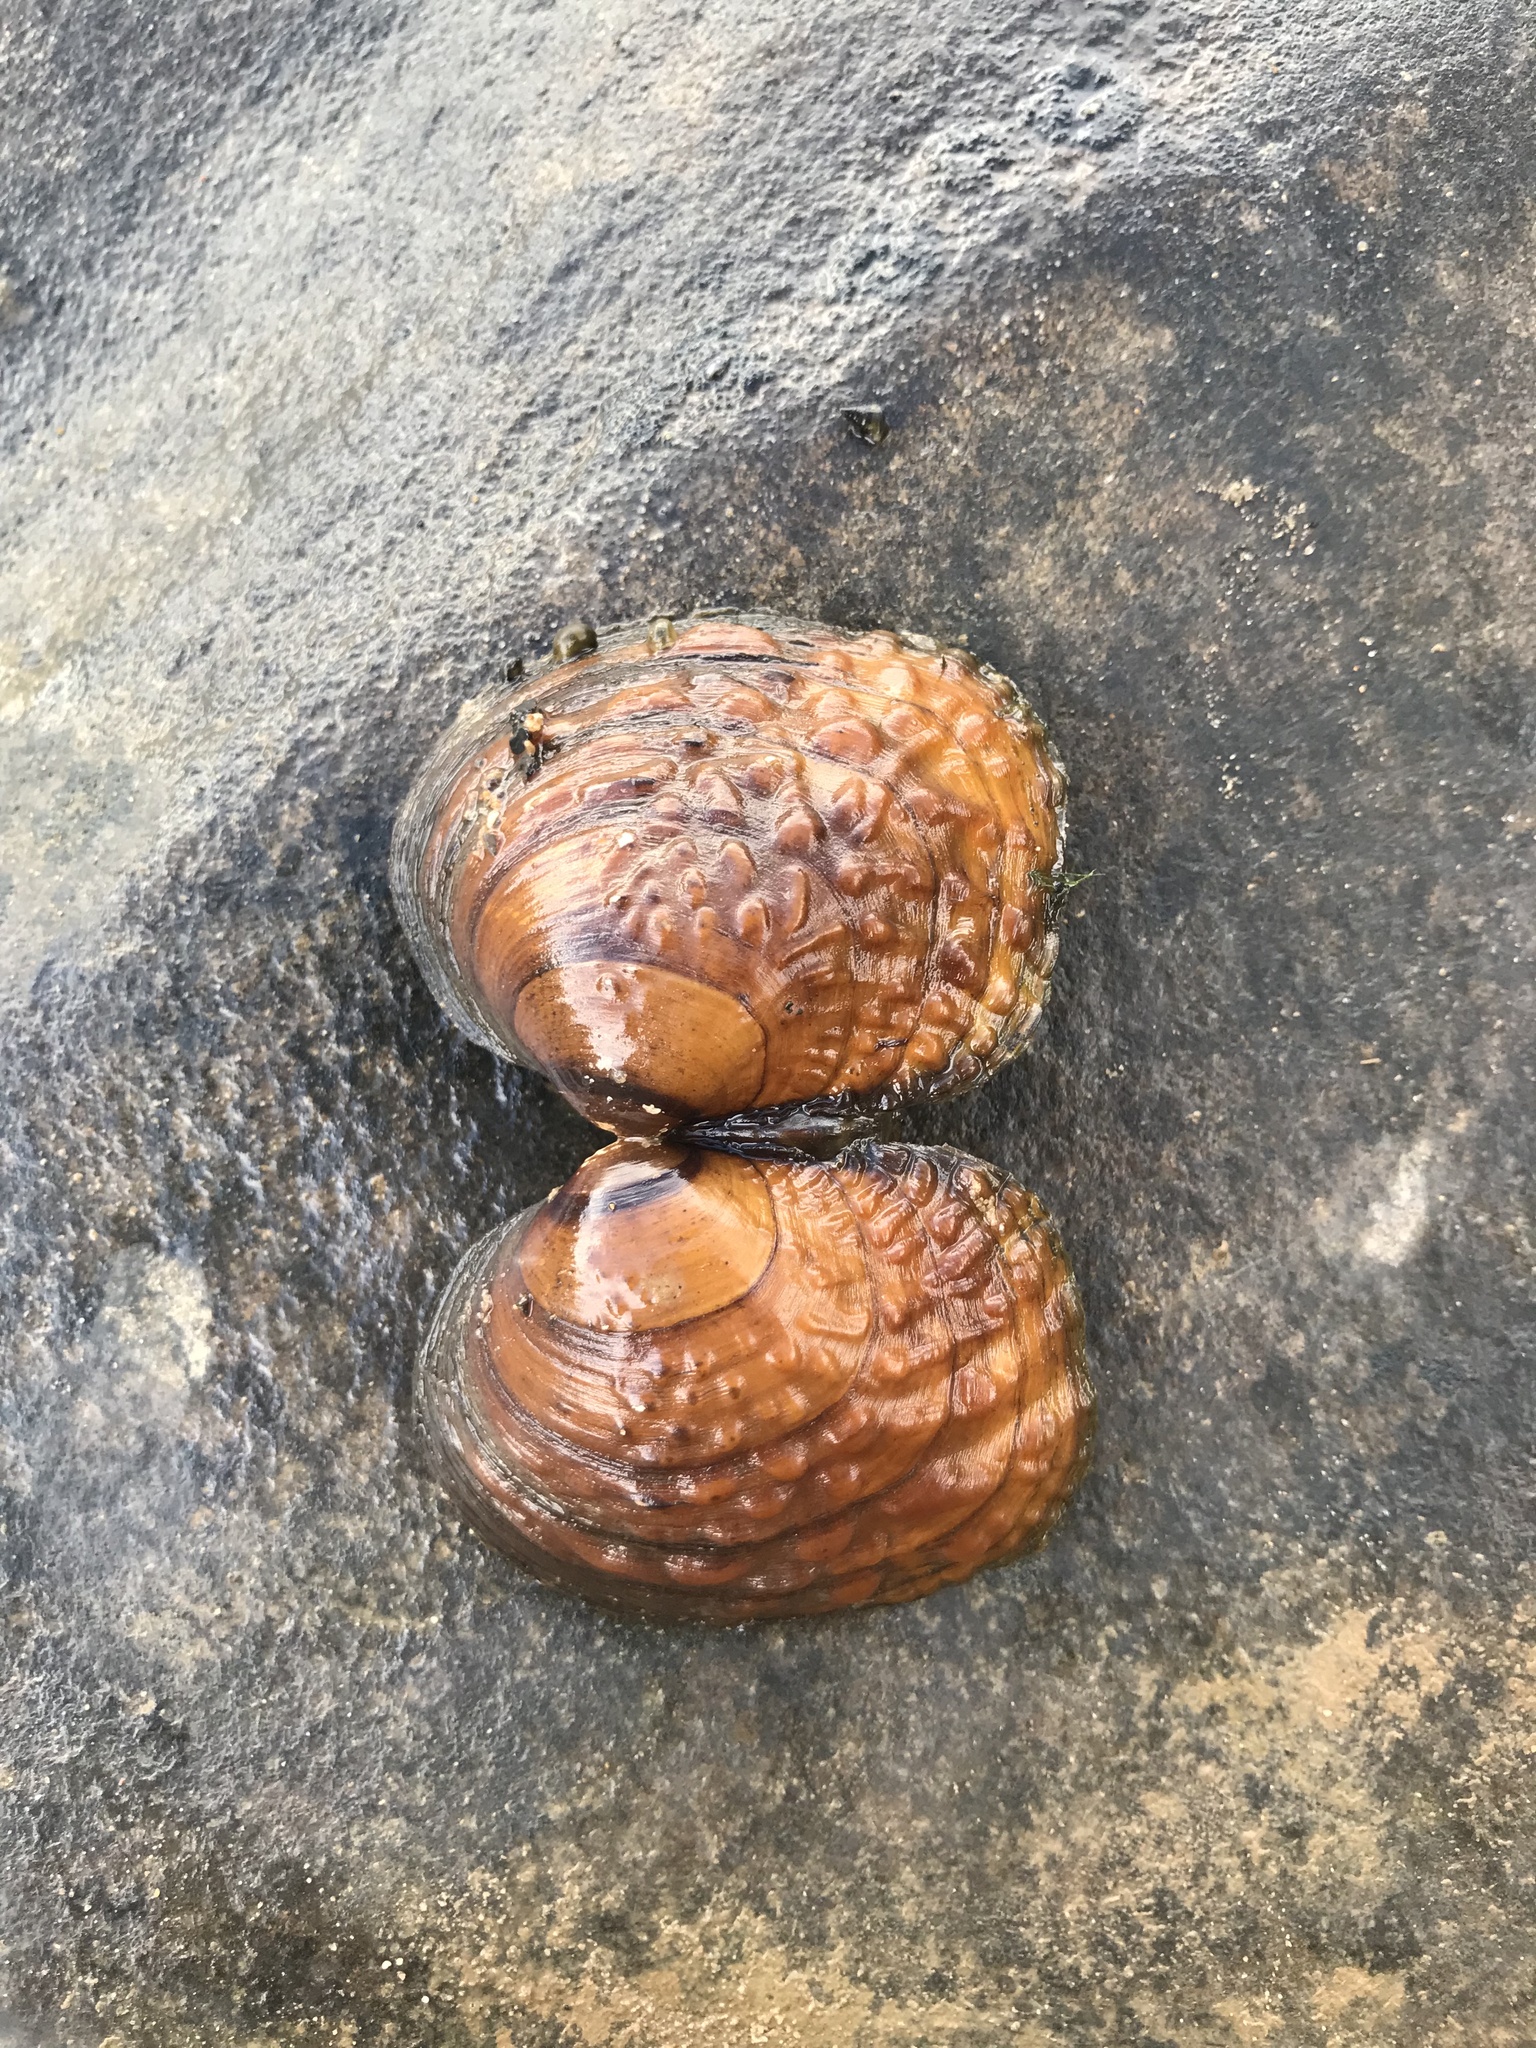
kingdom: Animalia
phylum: Mollusca
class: Bivalvia
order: Unionida
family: Unionidae
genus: Cyclonaias
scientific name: Cyclonaias kieneriana
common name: Coosa orb
